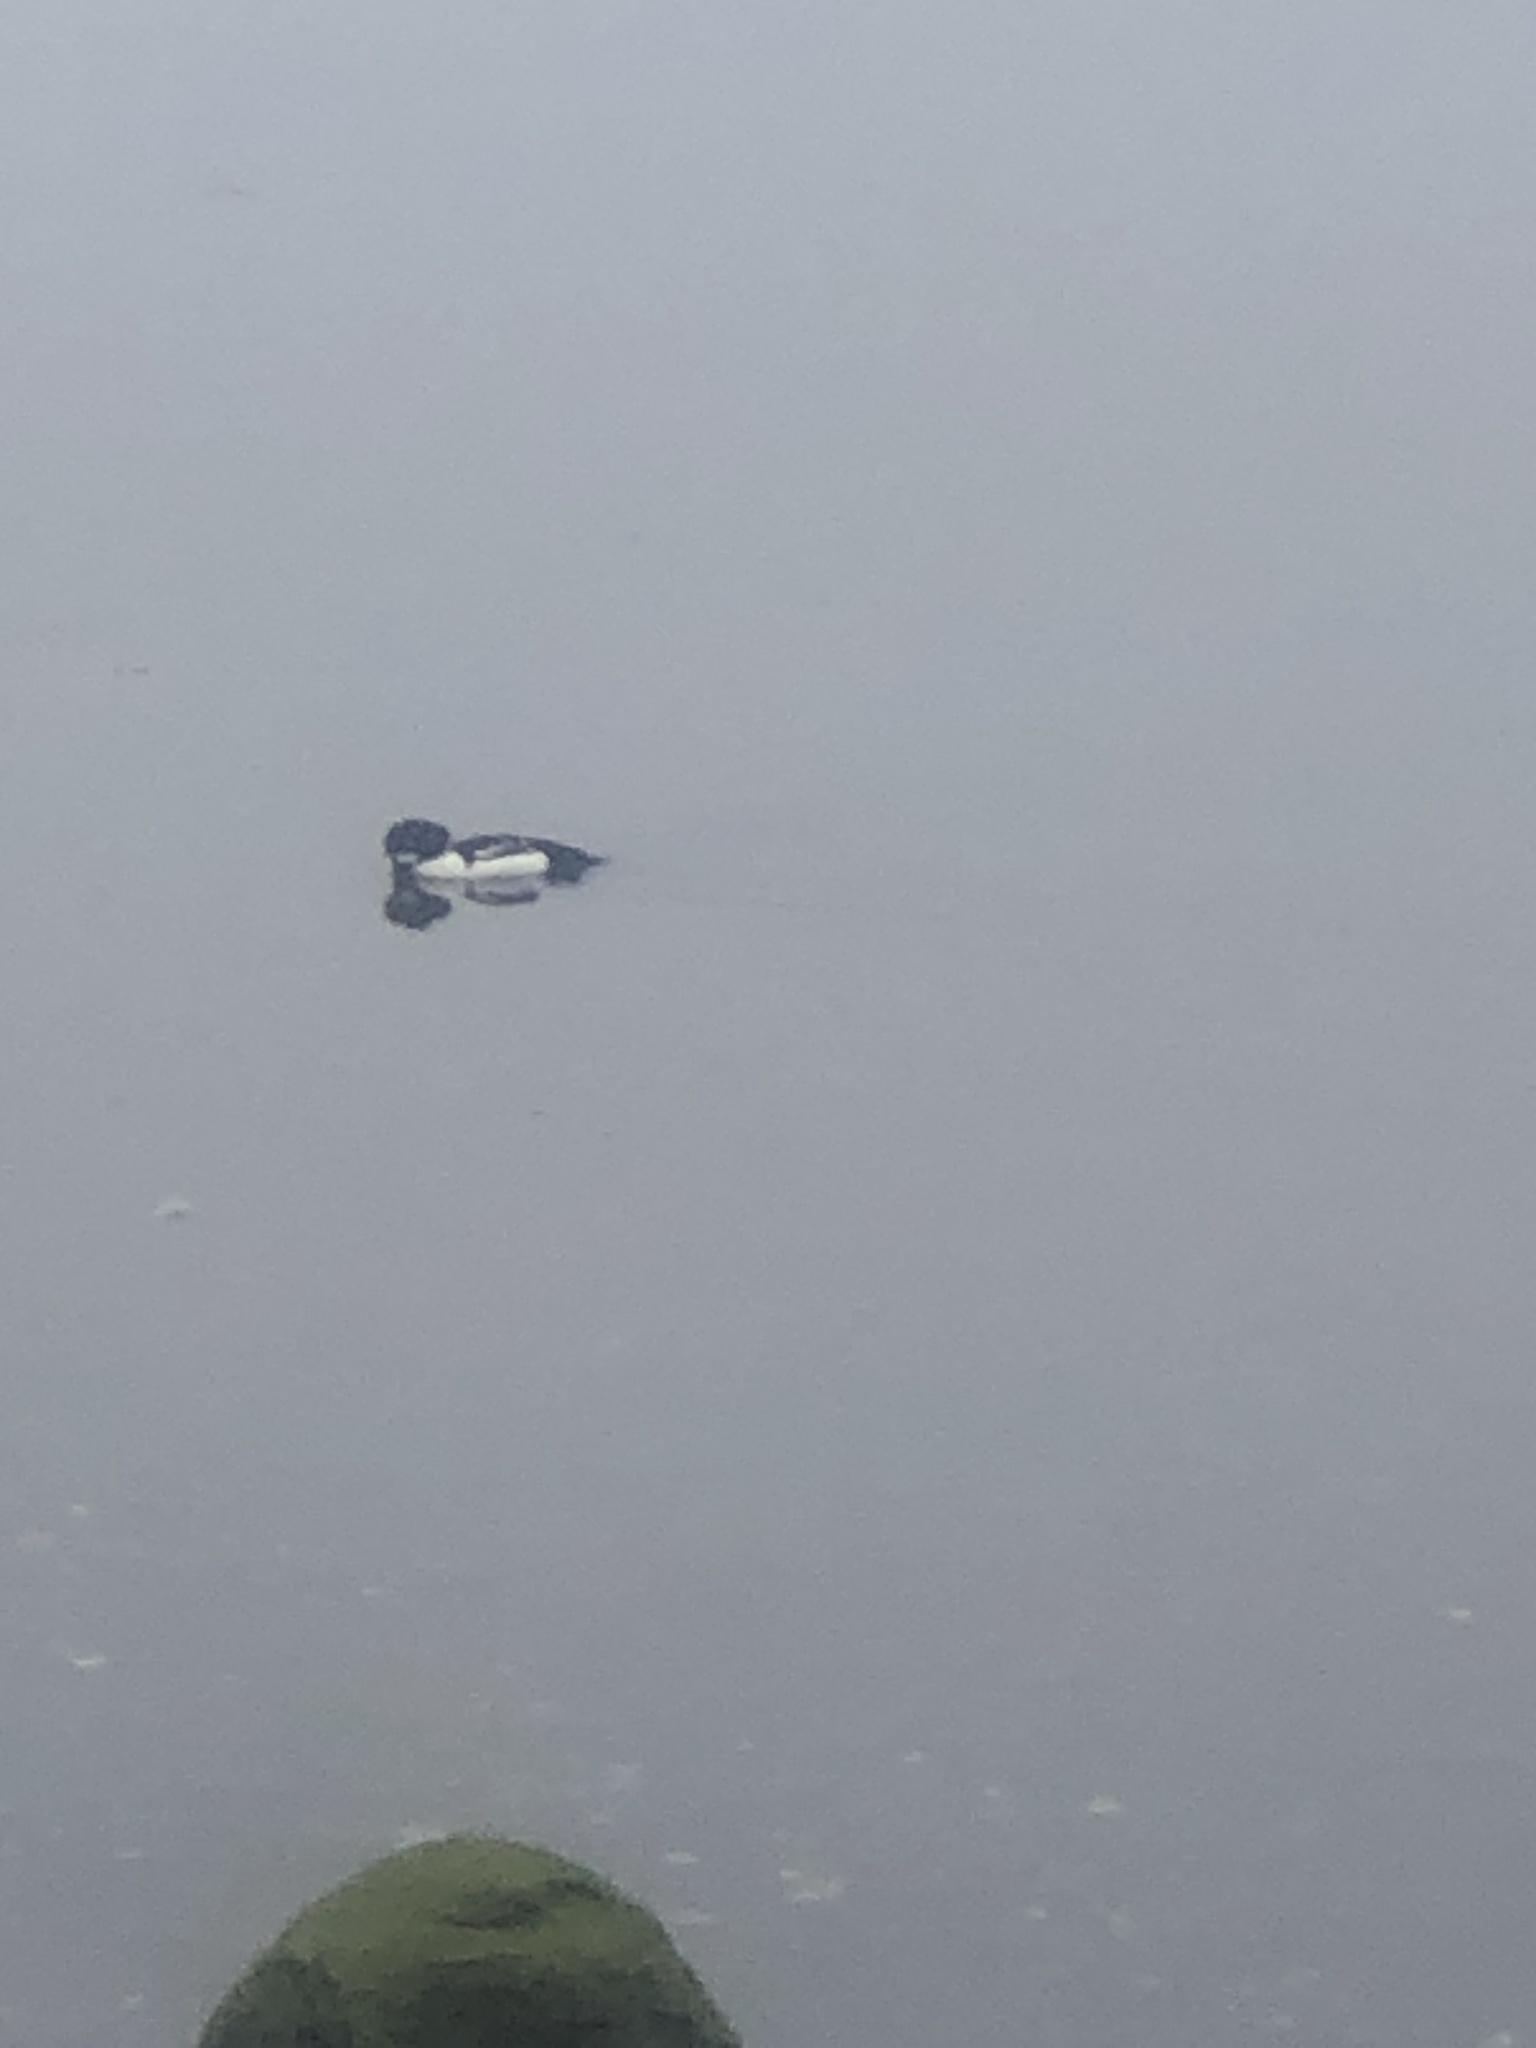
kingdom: Animalia
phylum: Chordata
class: Aves
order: Anseriformes
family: Anatidae
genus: Bucephala
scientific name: Bucephala islandica
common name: Barrow's goldeneye
